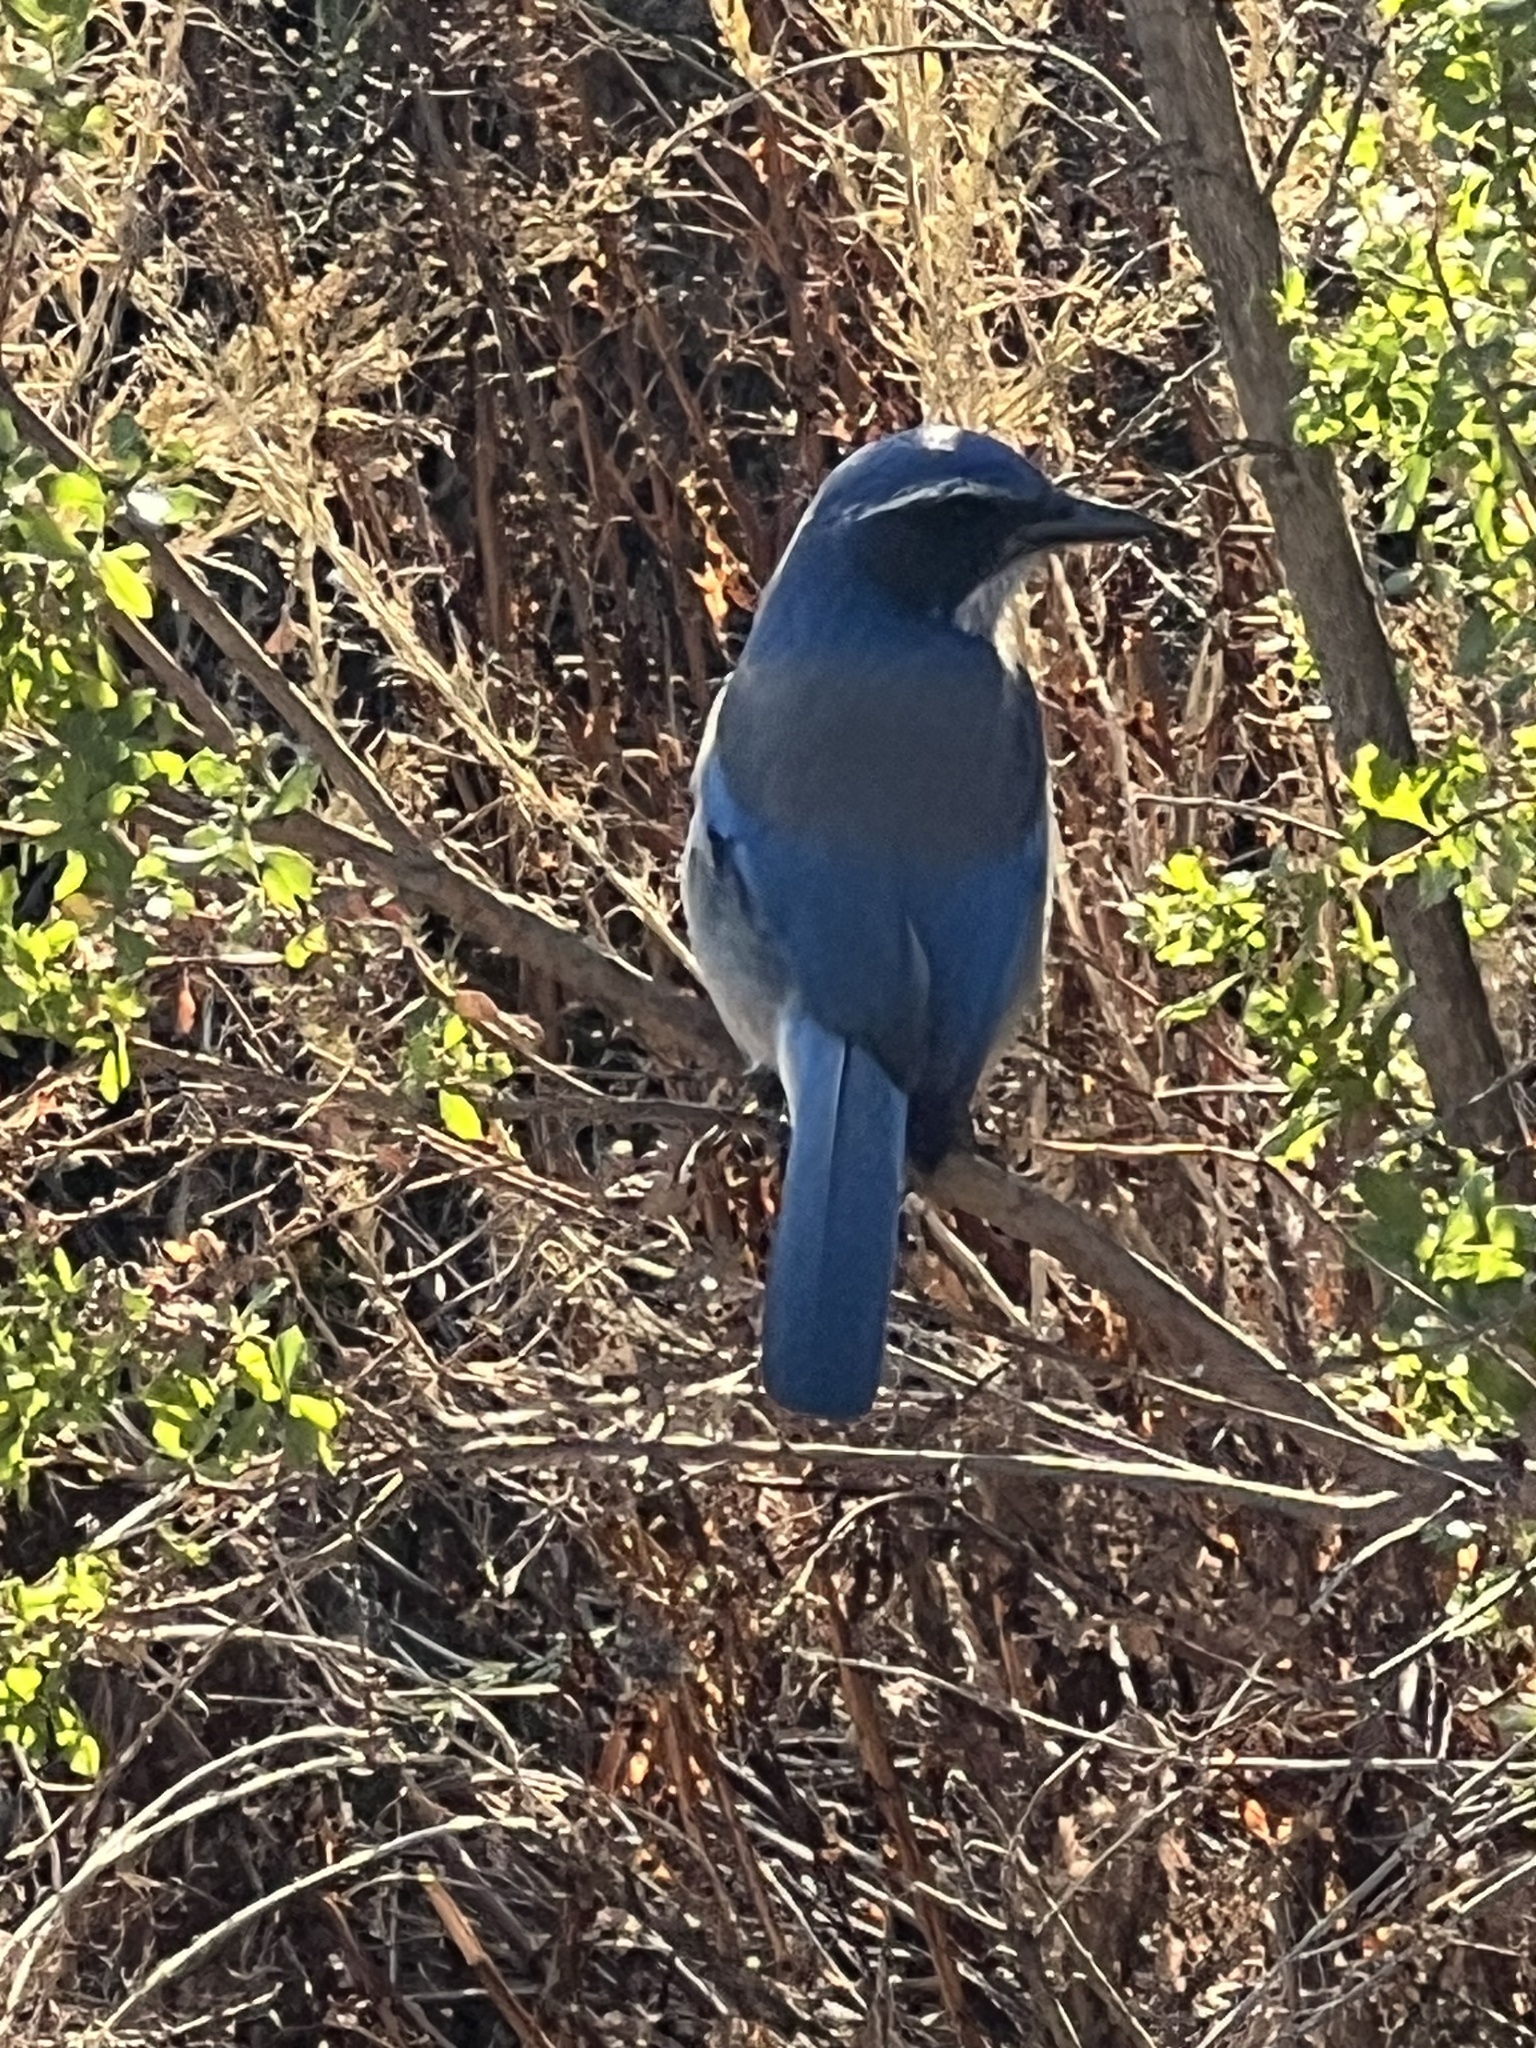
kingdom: Animalia
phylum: Chordata
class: Aves
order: Passeriformes
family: Corvidae
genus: Aphelocoma
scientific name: Aphelocoma californica
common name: California scrub-jay
